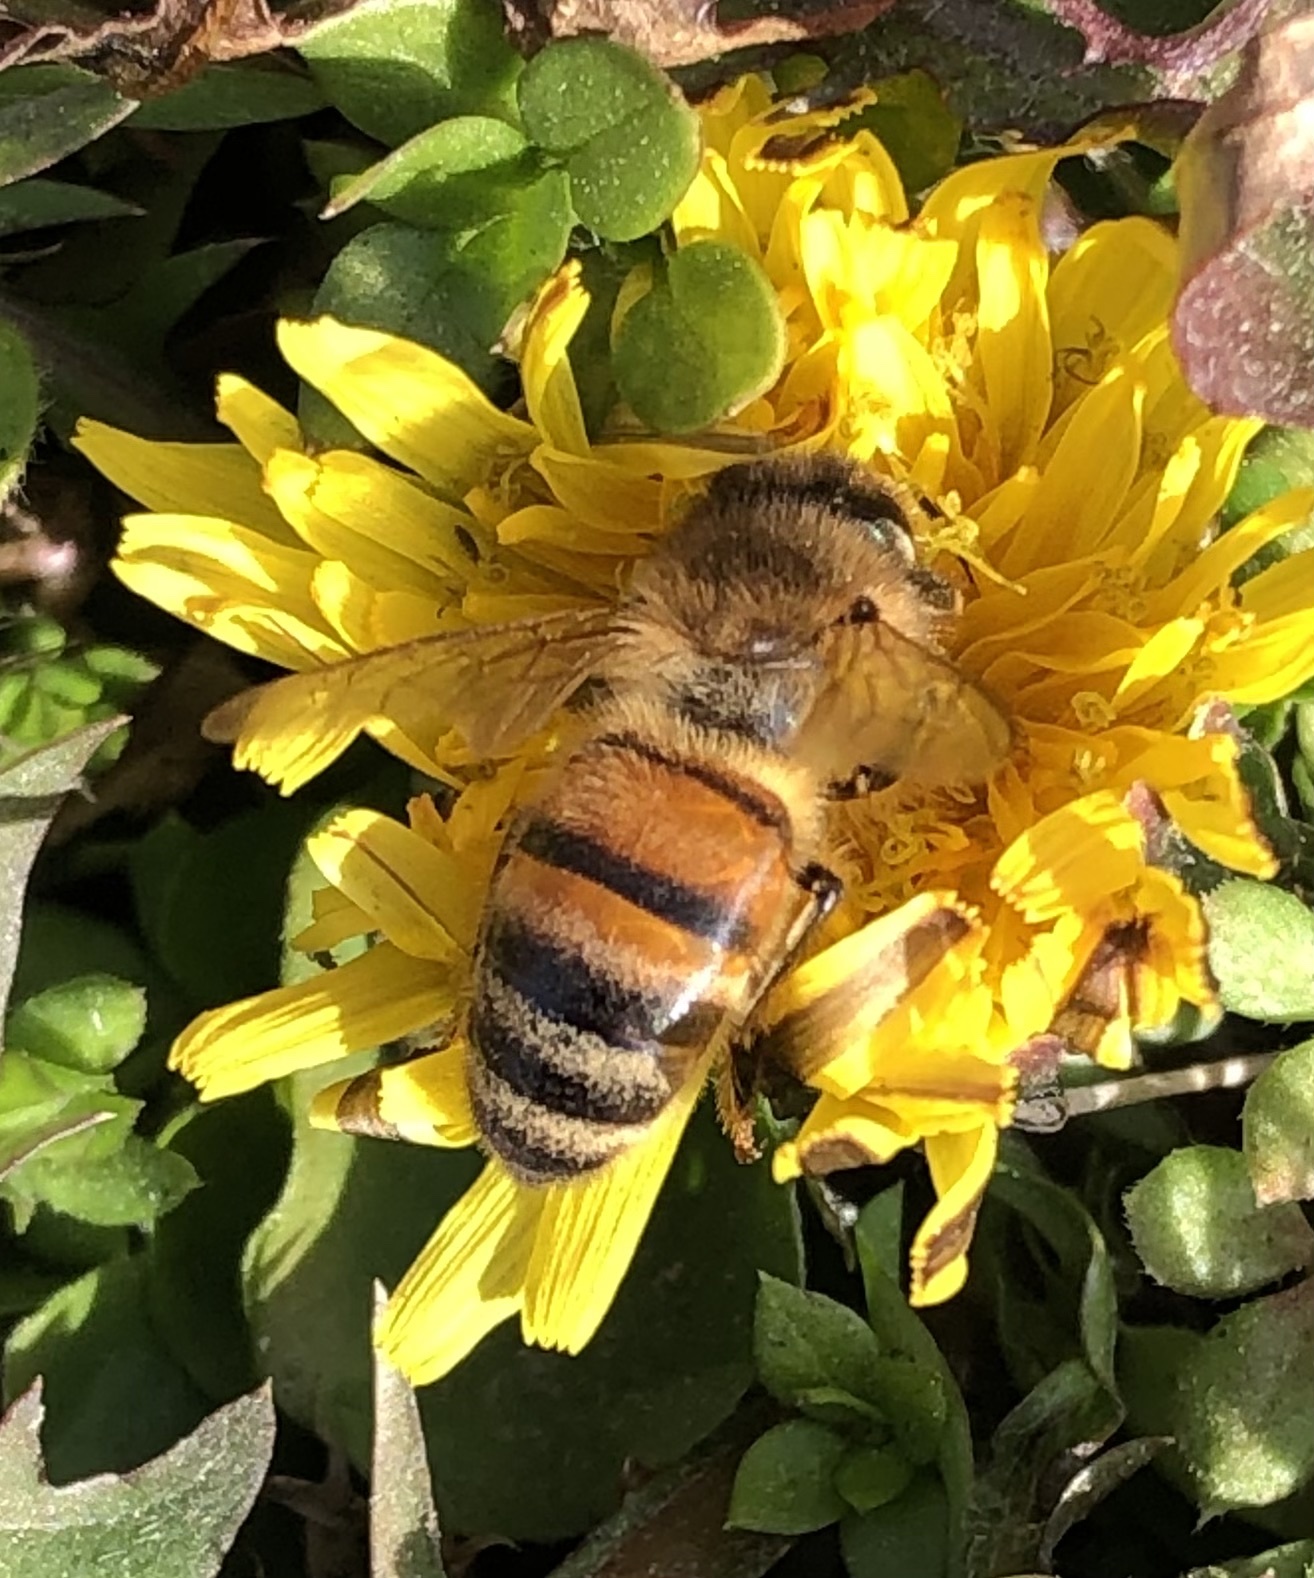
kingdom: Animalia
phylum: Arthropoda
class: Insecta
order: Hymenoptera
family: Apidae
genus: Apis
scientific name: Apis mellifera
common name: Honey bee
